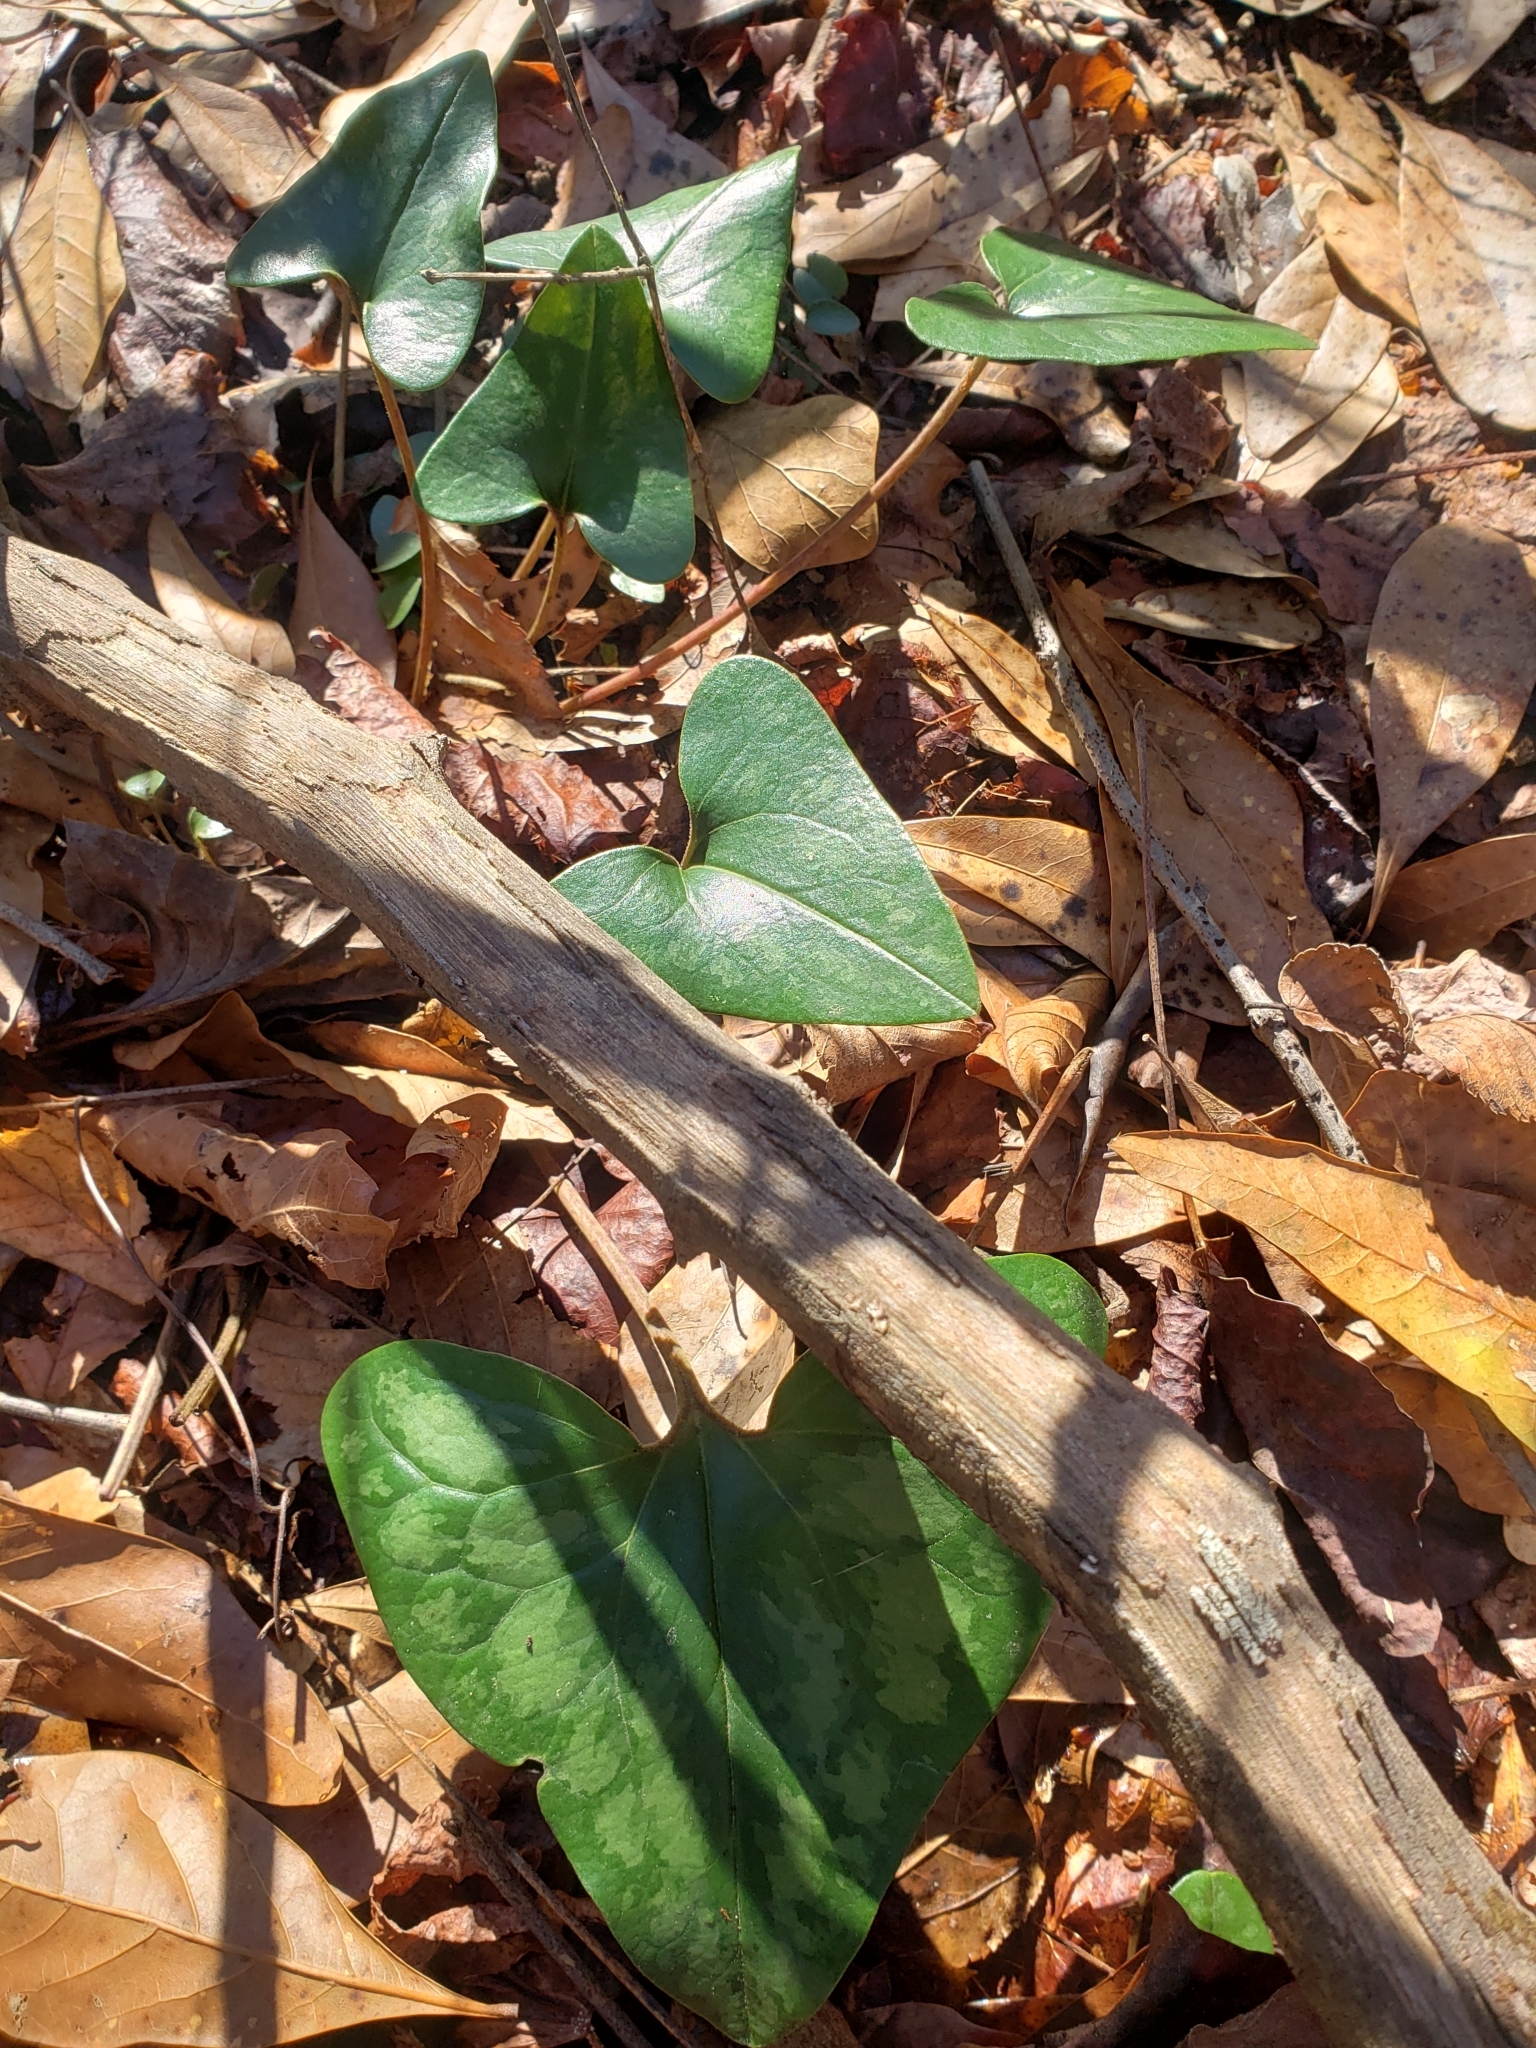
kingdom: Plantae
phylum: Tracheophyta
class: Magnoliopsida
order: Piperales
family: Aristolochiaceae
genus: Hexastylis
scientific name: Hexastylis arifolia
